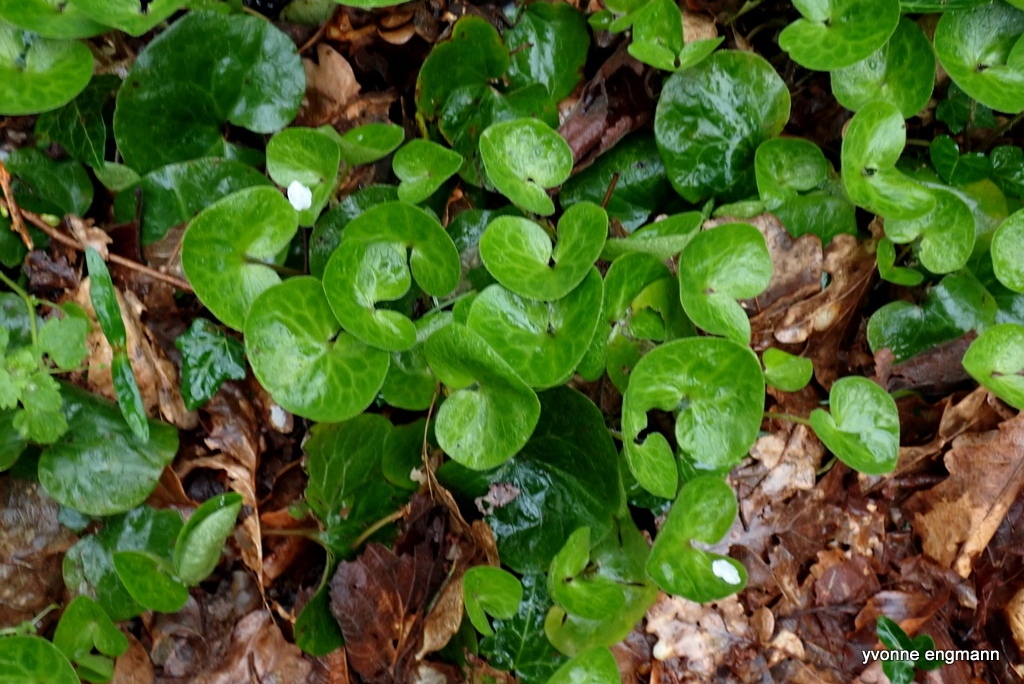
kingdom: Plantae
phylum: Tracheophyta
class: Magnoliopsida
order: Piperales
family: Aristolochiaceae
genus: Asarum
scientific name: Asarum europaeum
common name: Asarabacca
